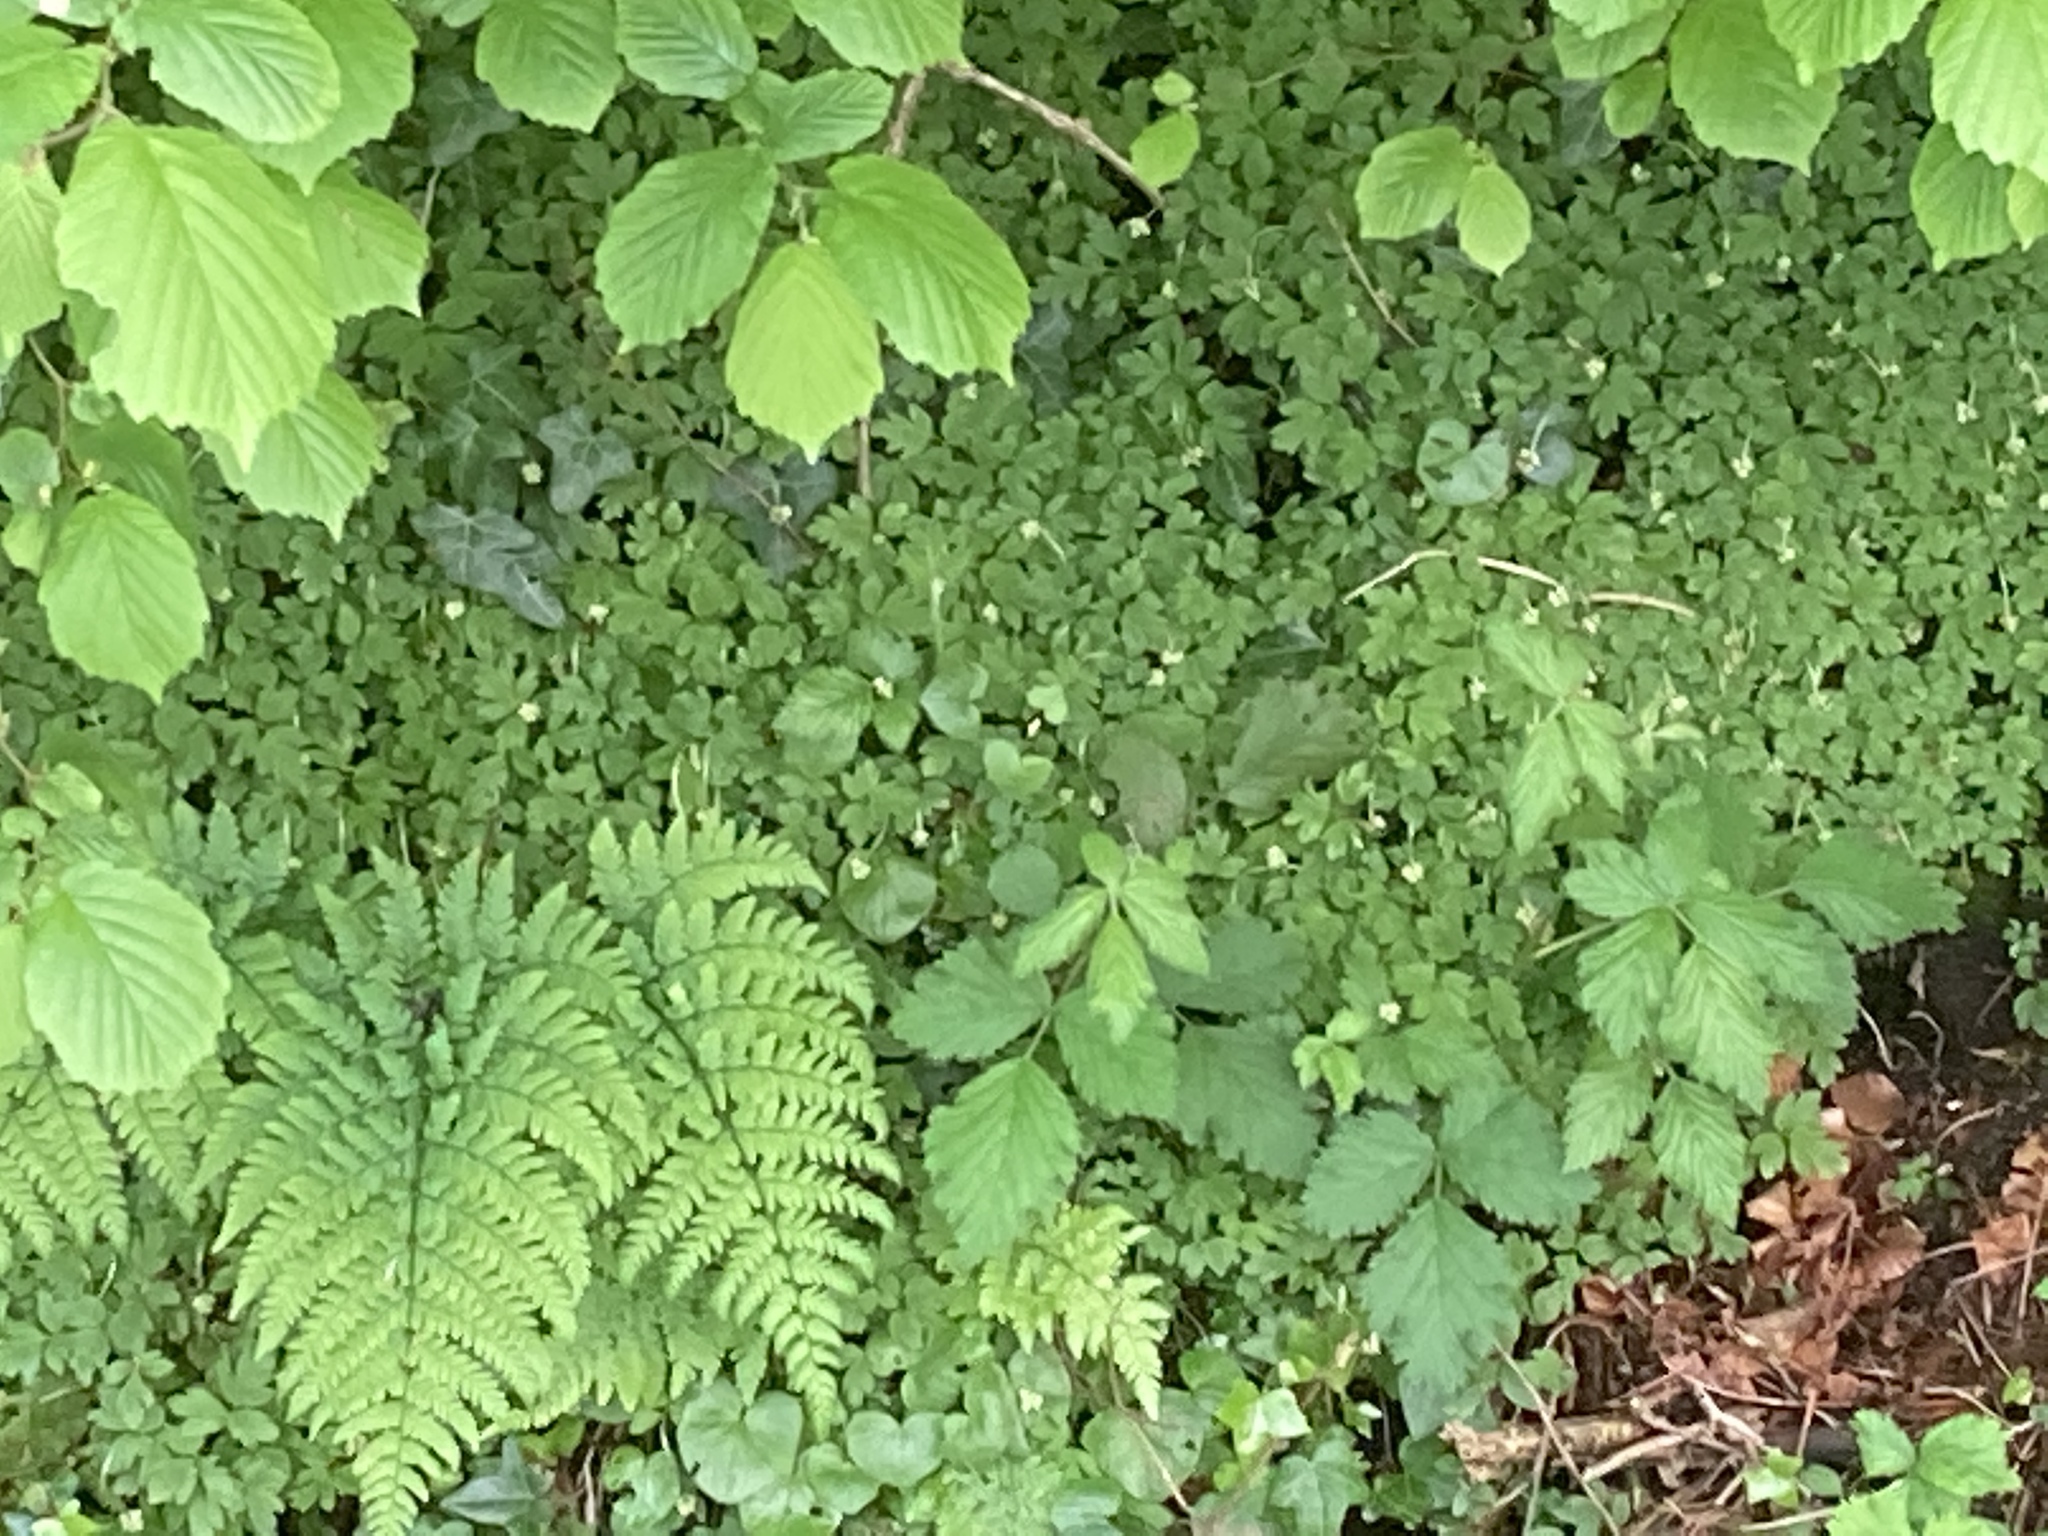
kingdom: Plantae
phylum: Tracheophyta
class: Magnoliopsida
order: Dipsacales
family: Viburnaceae
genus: Adoxa
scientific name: Adoxa moschatellina
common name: Moschatel
